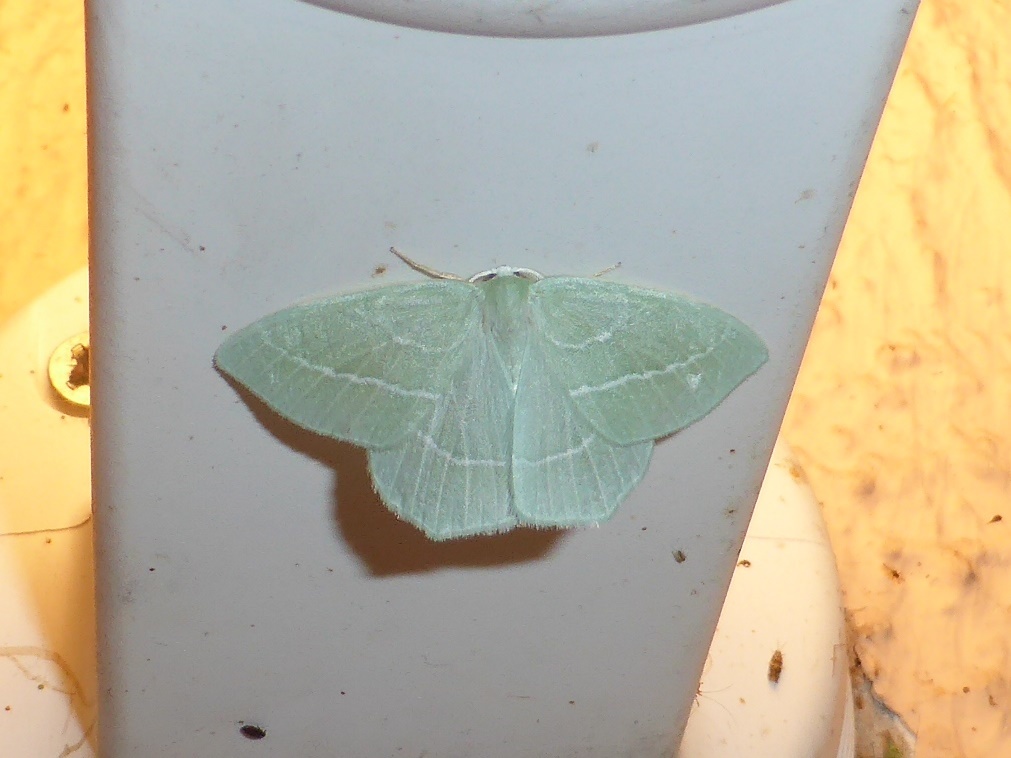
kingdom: Animalia
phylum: Arthropoda
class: Insecta
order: Lepidoptera
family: Geometridae
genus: Hemistola
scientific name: Hemistola chrysoprasaria
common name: Small emerald
